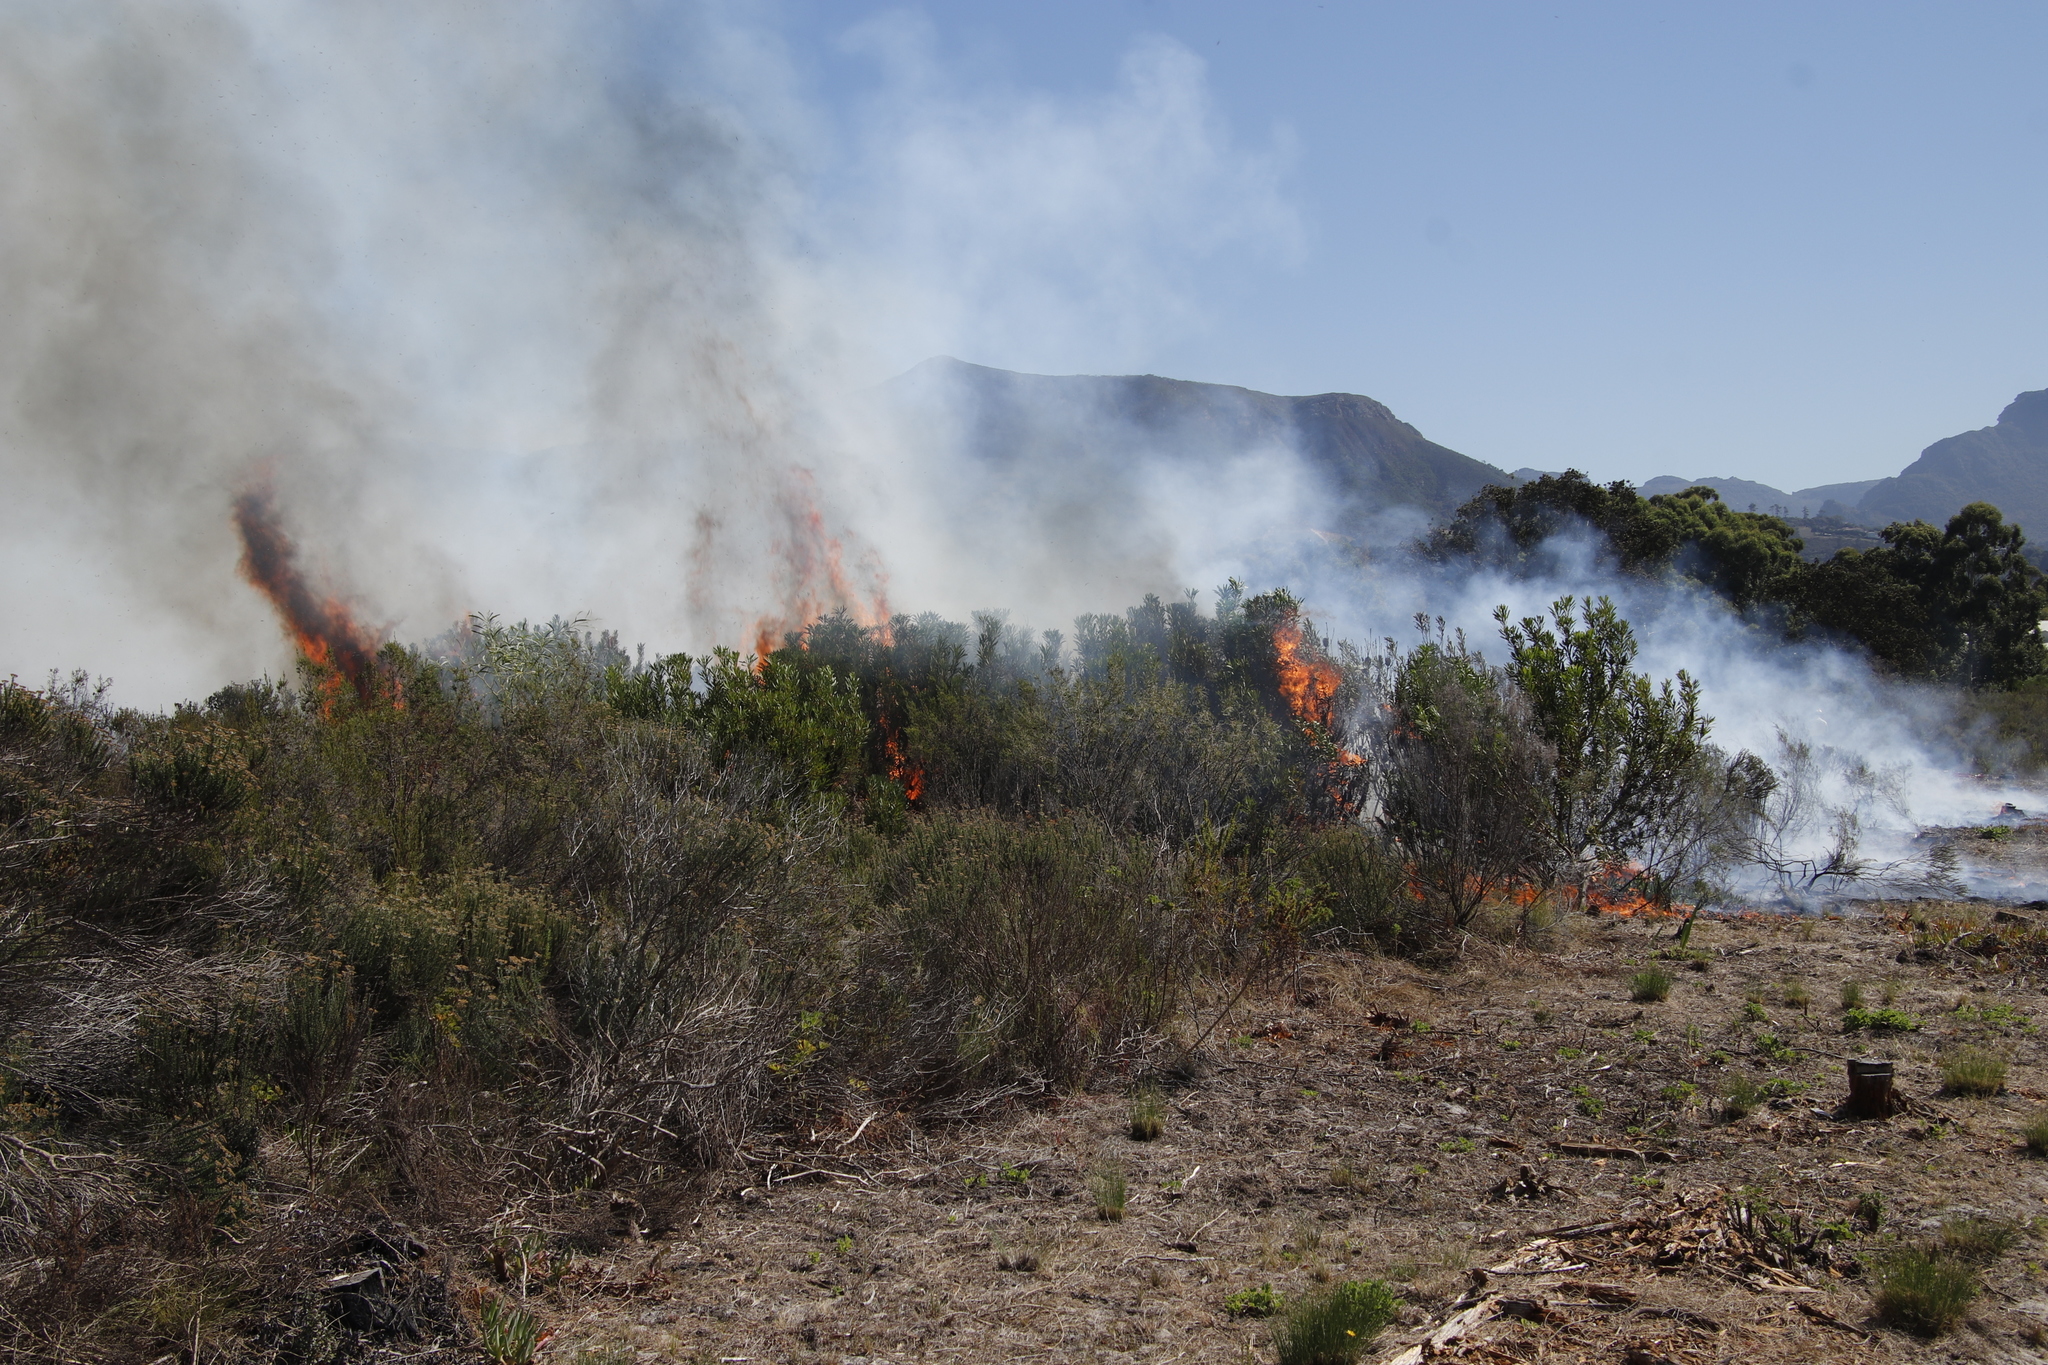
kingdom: Plantae
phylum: Tracheophyta
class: Magnoliopsida
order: Asterales
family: Asteraceae
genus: Metalasia
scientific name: Metalasia densa
